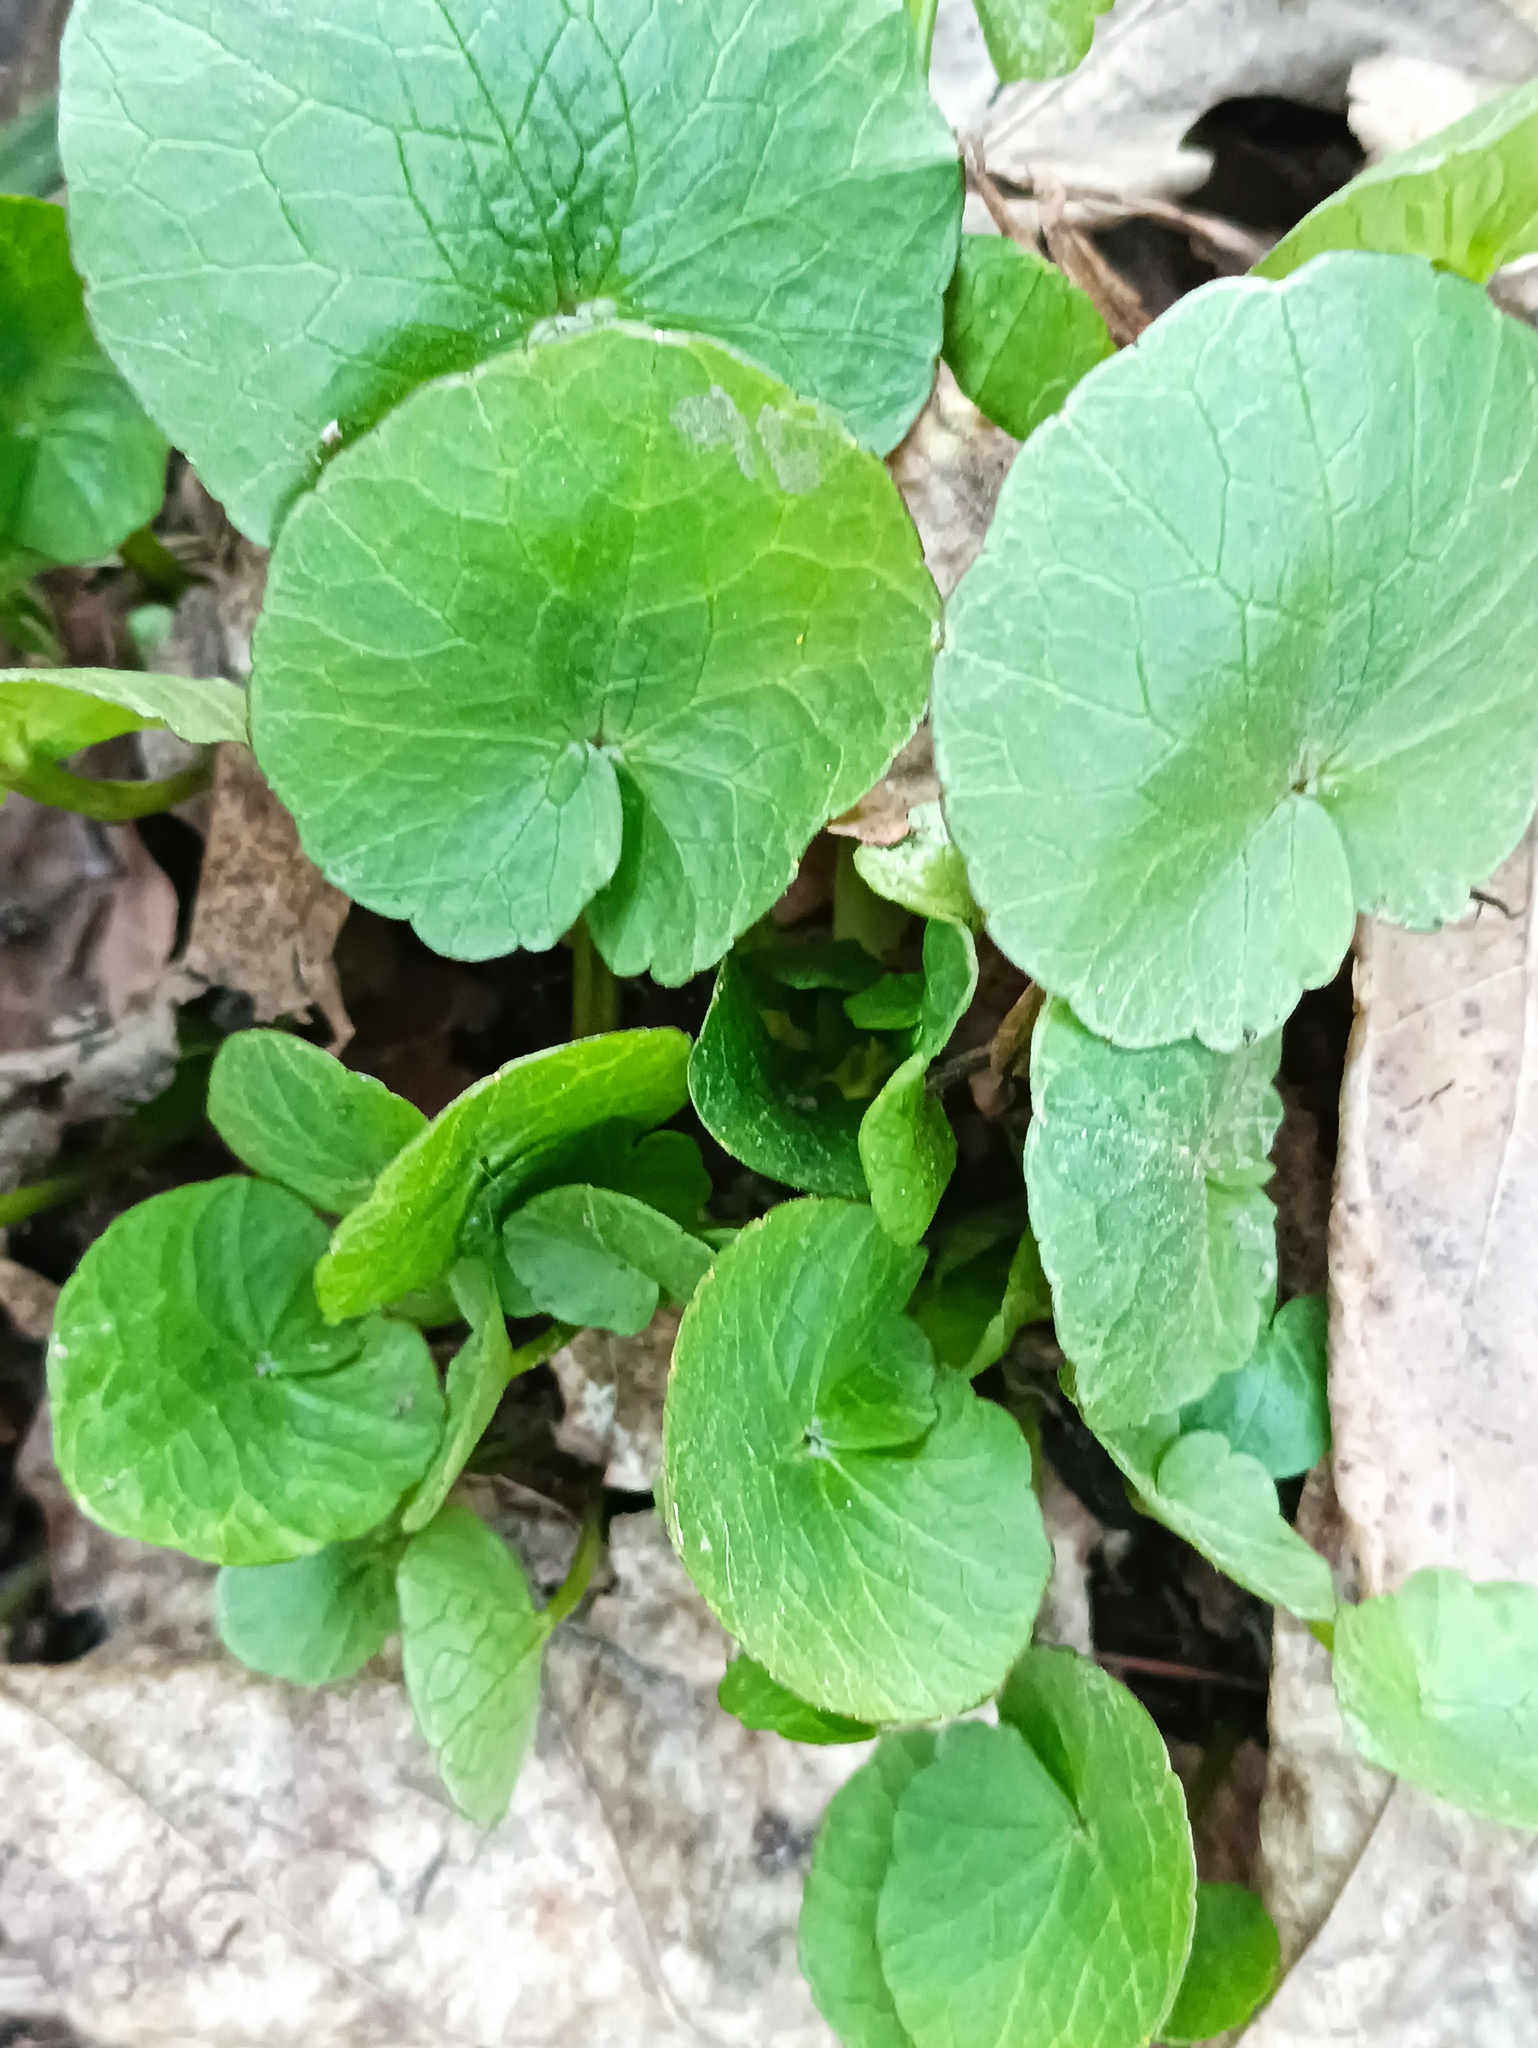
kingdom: Plantae
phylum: Tracheophyta
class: Magnoliopsida
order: Ranunculales
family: Ranunculaceae
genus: Ficaria
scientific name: Ficaria verna
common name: Lesser celandine
